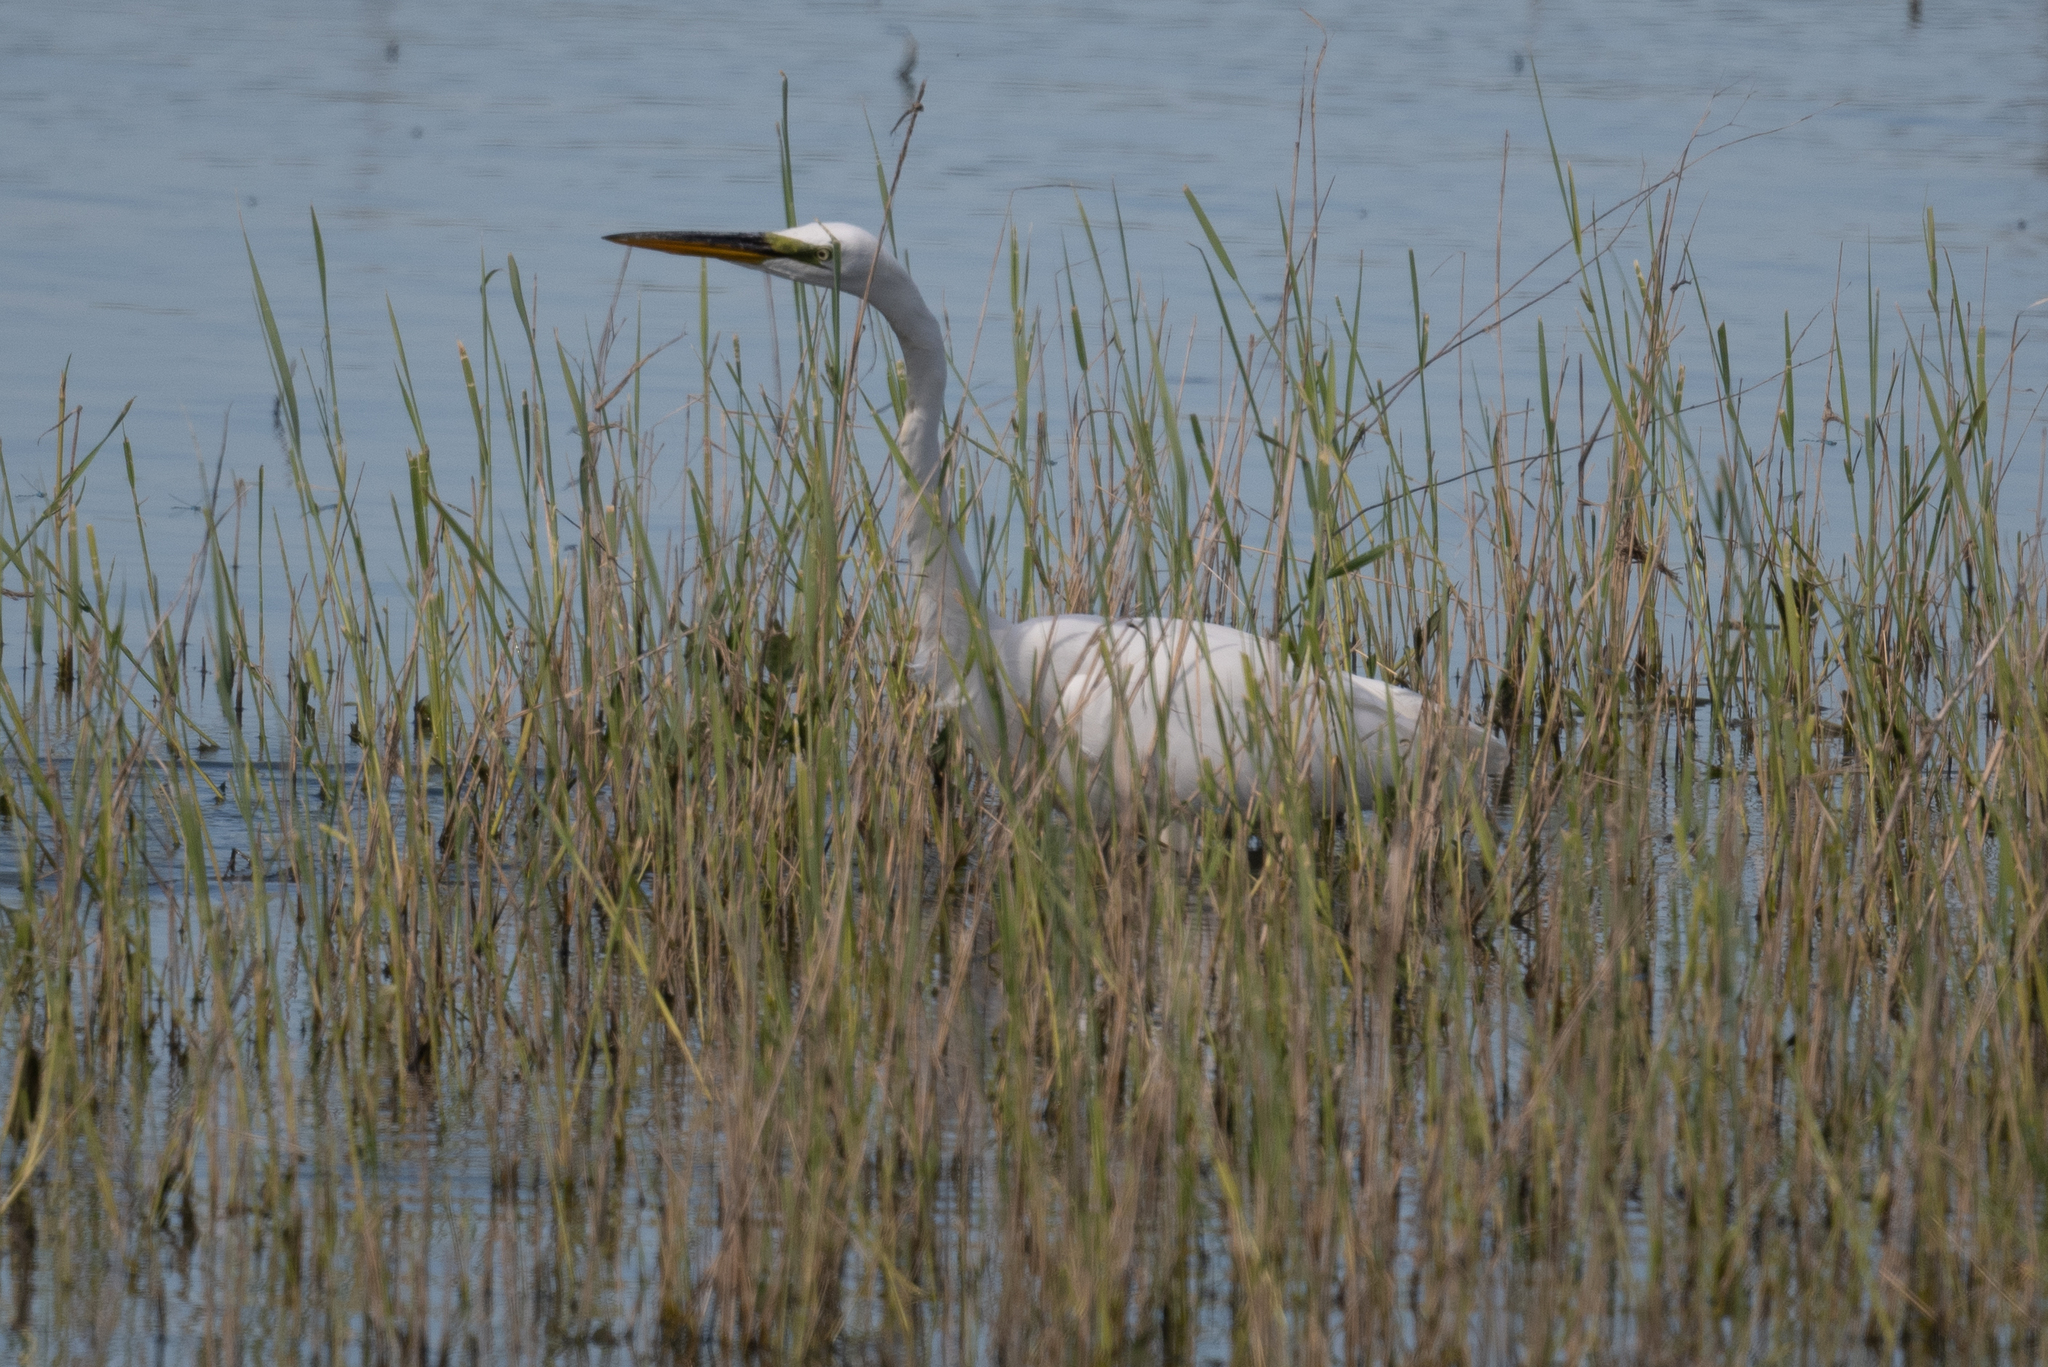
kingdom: Animalia
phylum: Chordata
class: Aves
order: Pelecaniformes
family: Ardeidae
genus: Ardea
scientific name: Ardea alba
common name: Great egret
